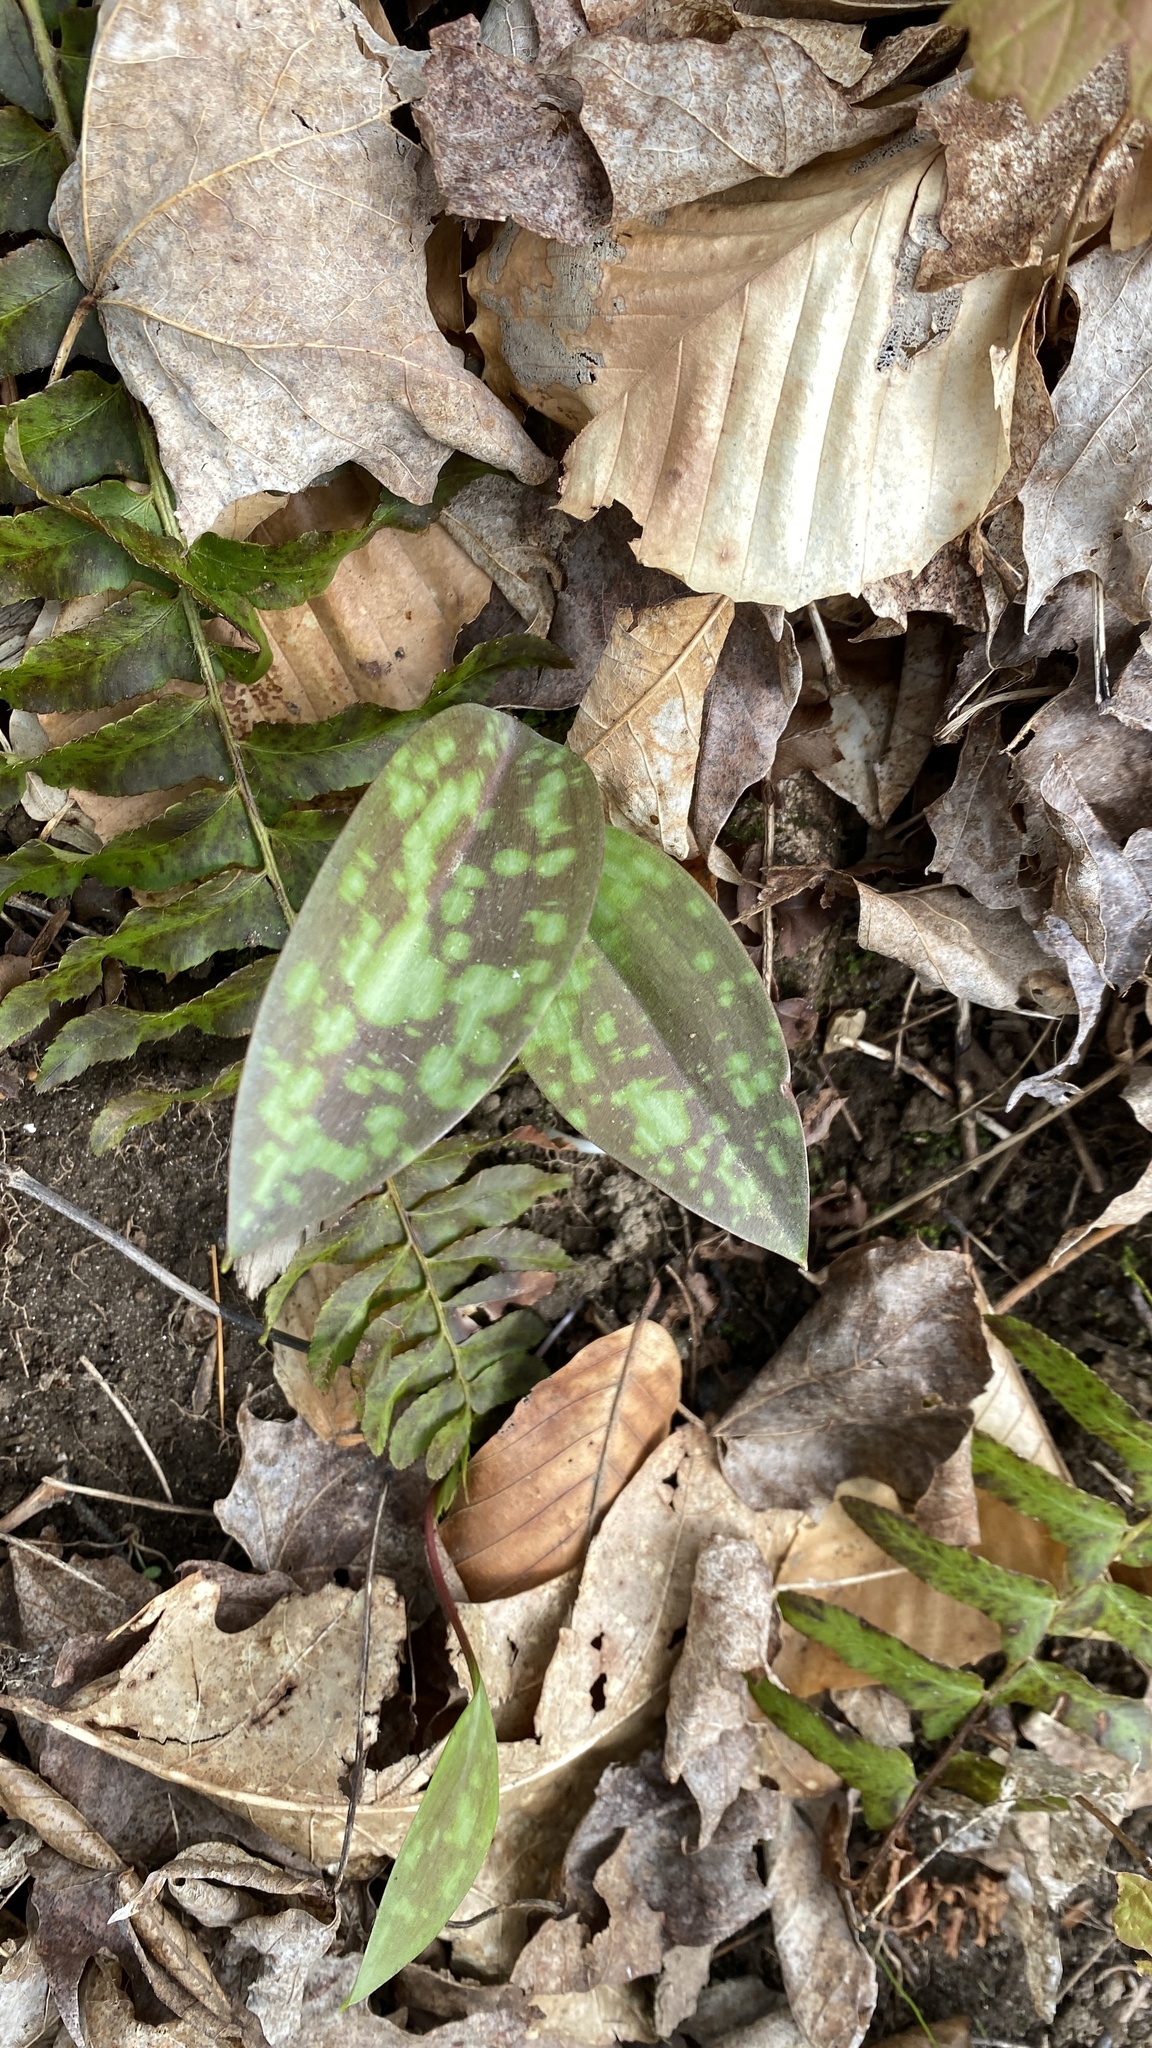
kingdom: Plantae
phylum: Tracheophyta
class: Liliopsida
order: Liliales
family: Liliaceae
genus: Erythronium
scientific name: Erythronium americanum
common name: Yellow adder's-tongue
